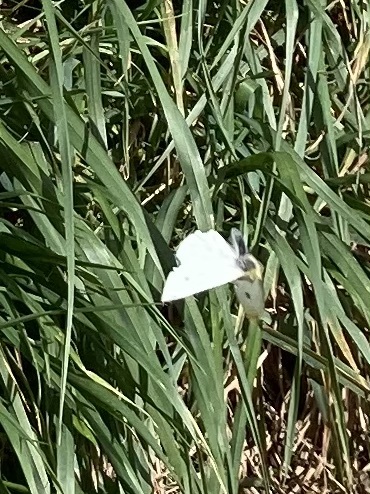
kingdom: Animalia
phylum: Arthropoda
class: Insecta
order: Lepidoptera
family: Pieridae
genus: Pieris
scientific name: Pieris rapae
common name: Small white
